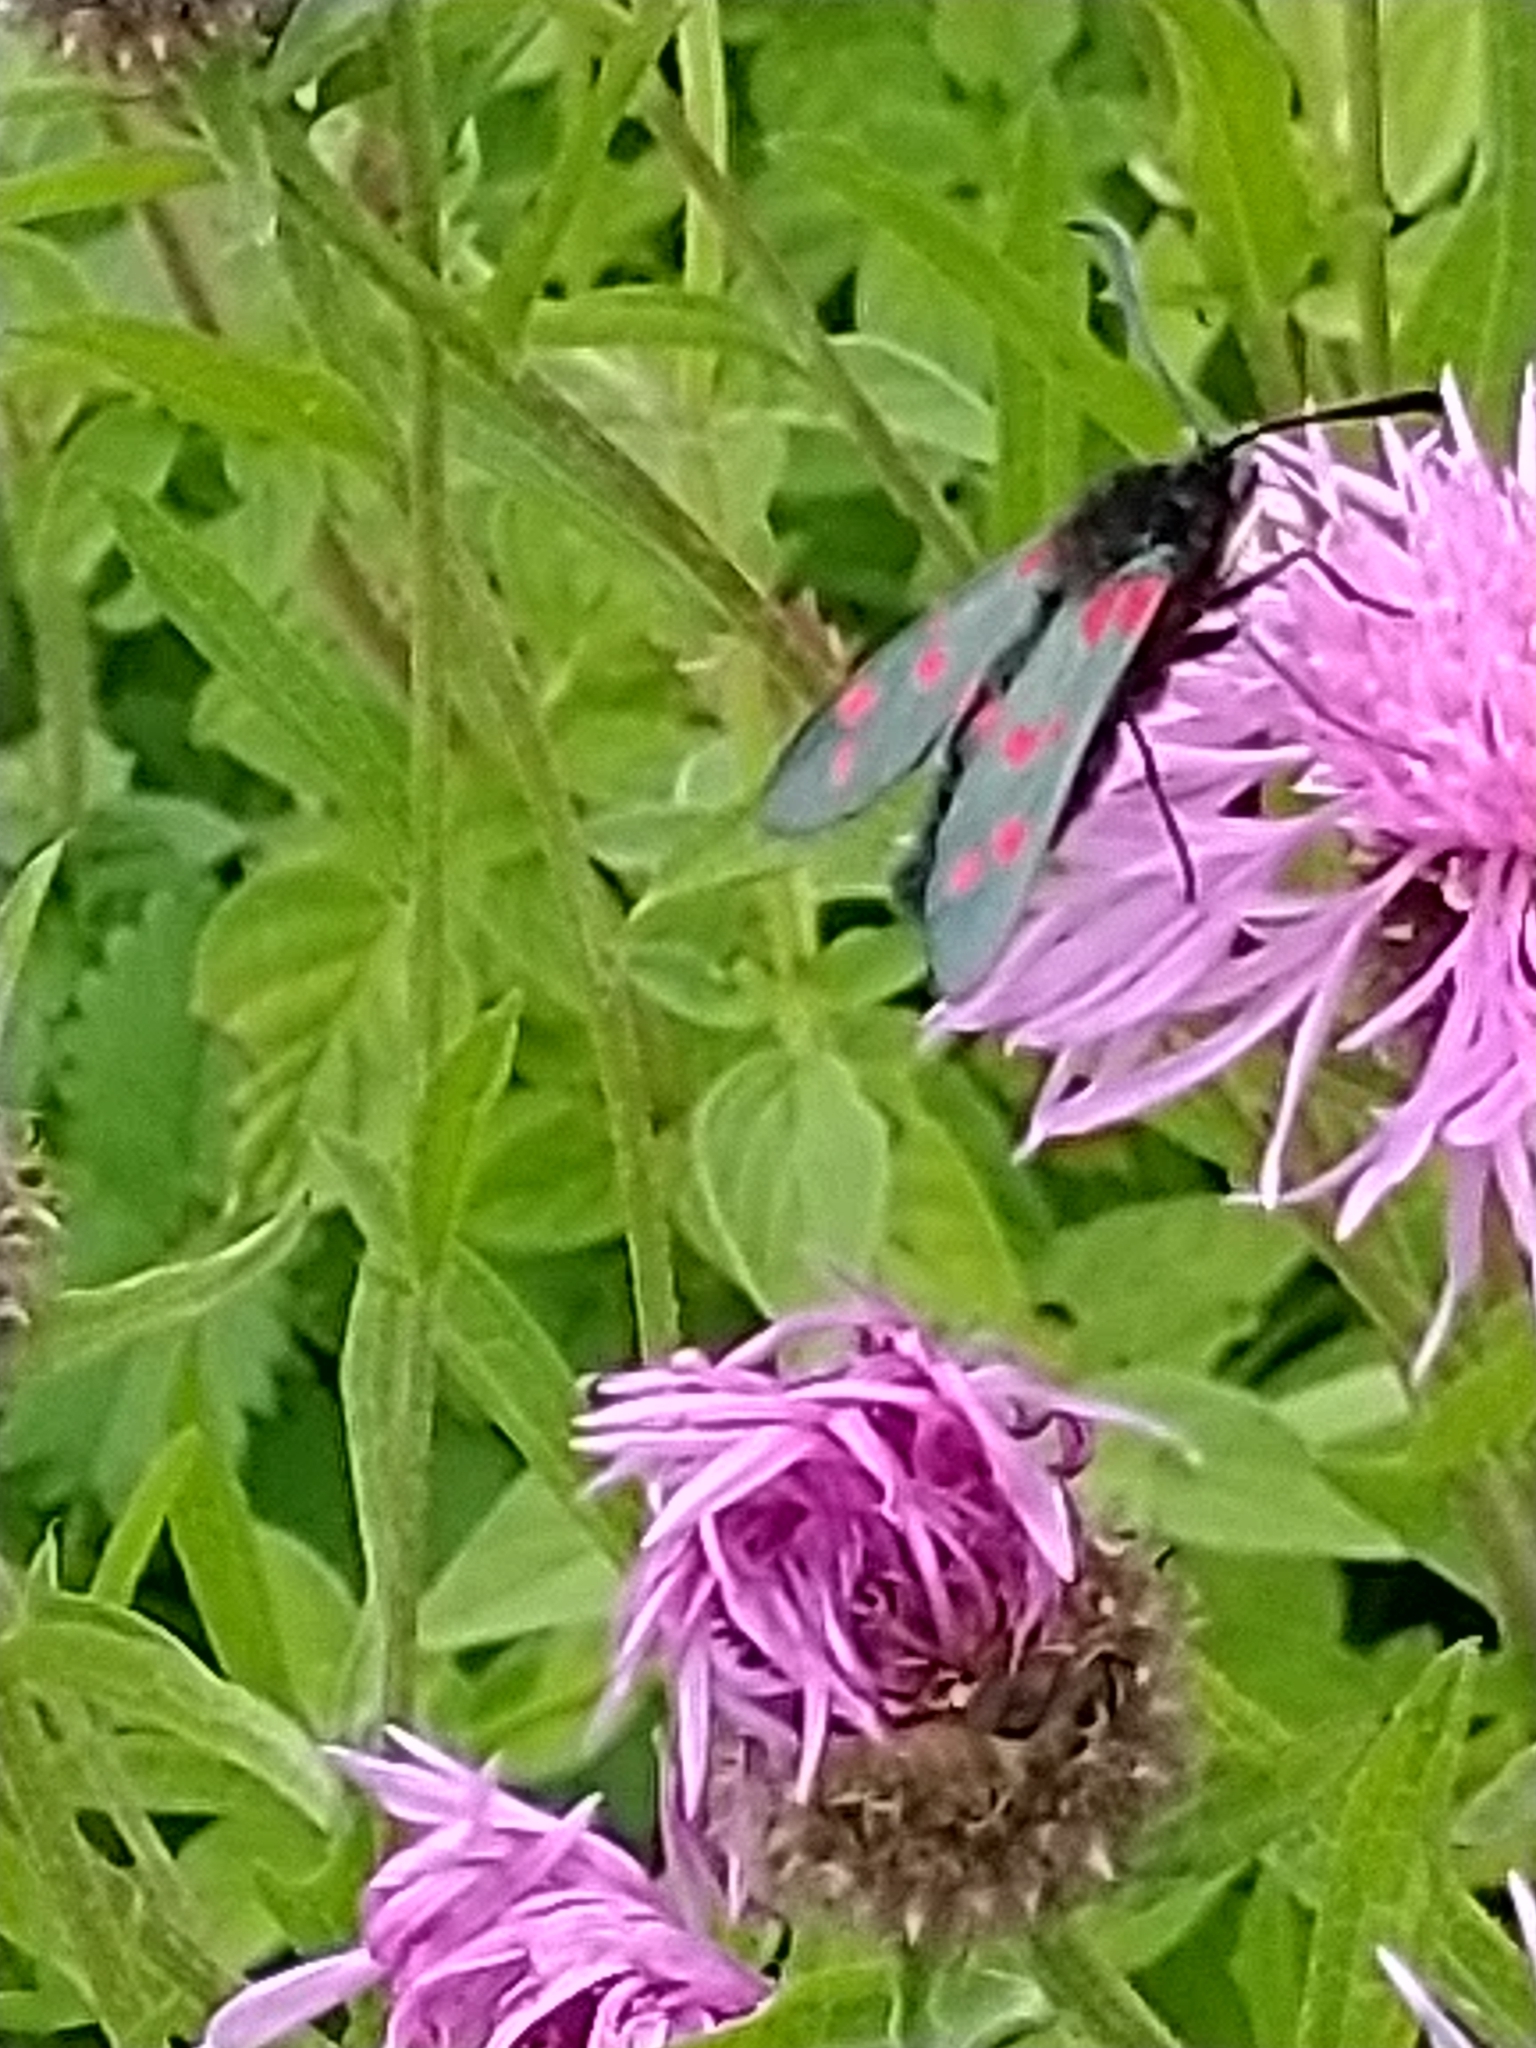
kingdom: Animalia
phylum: Arthropoda
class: Insecta
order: Lepidoptera
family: Zygaenidae
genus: Zygaena
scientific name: Zygaena filipendulae
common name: Six-spot burnet
